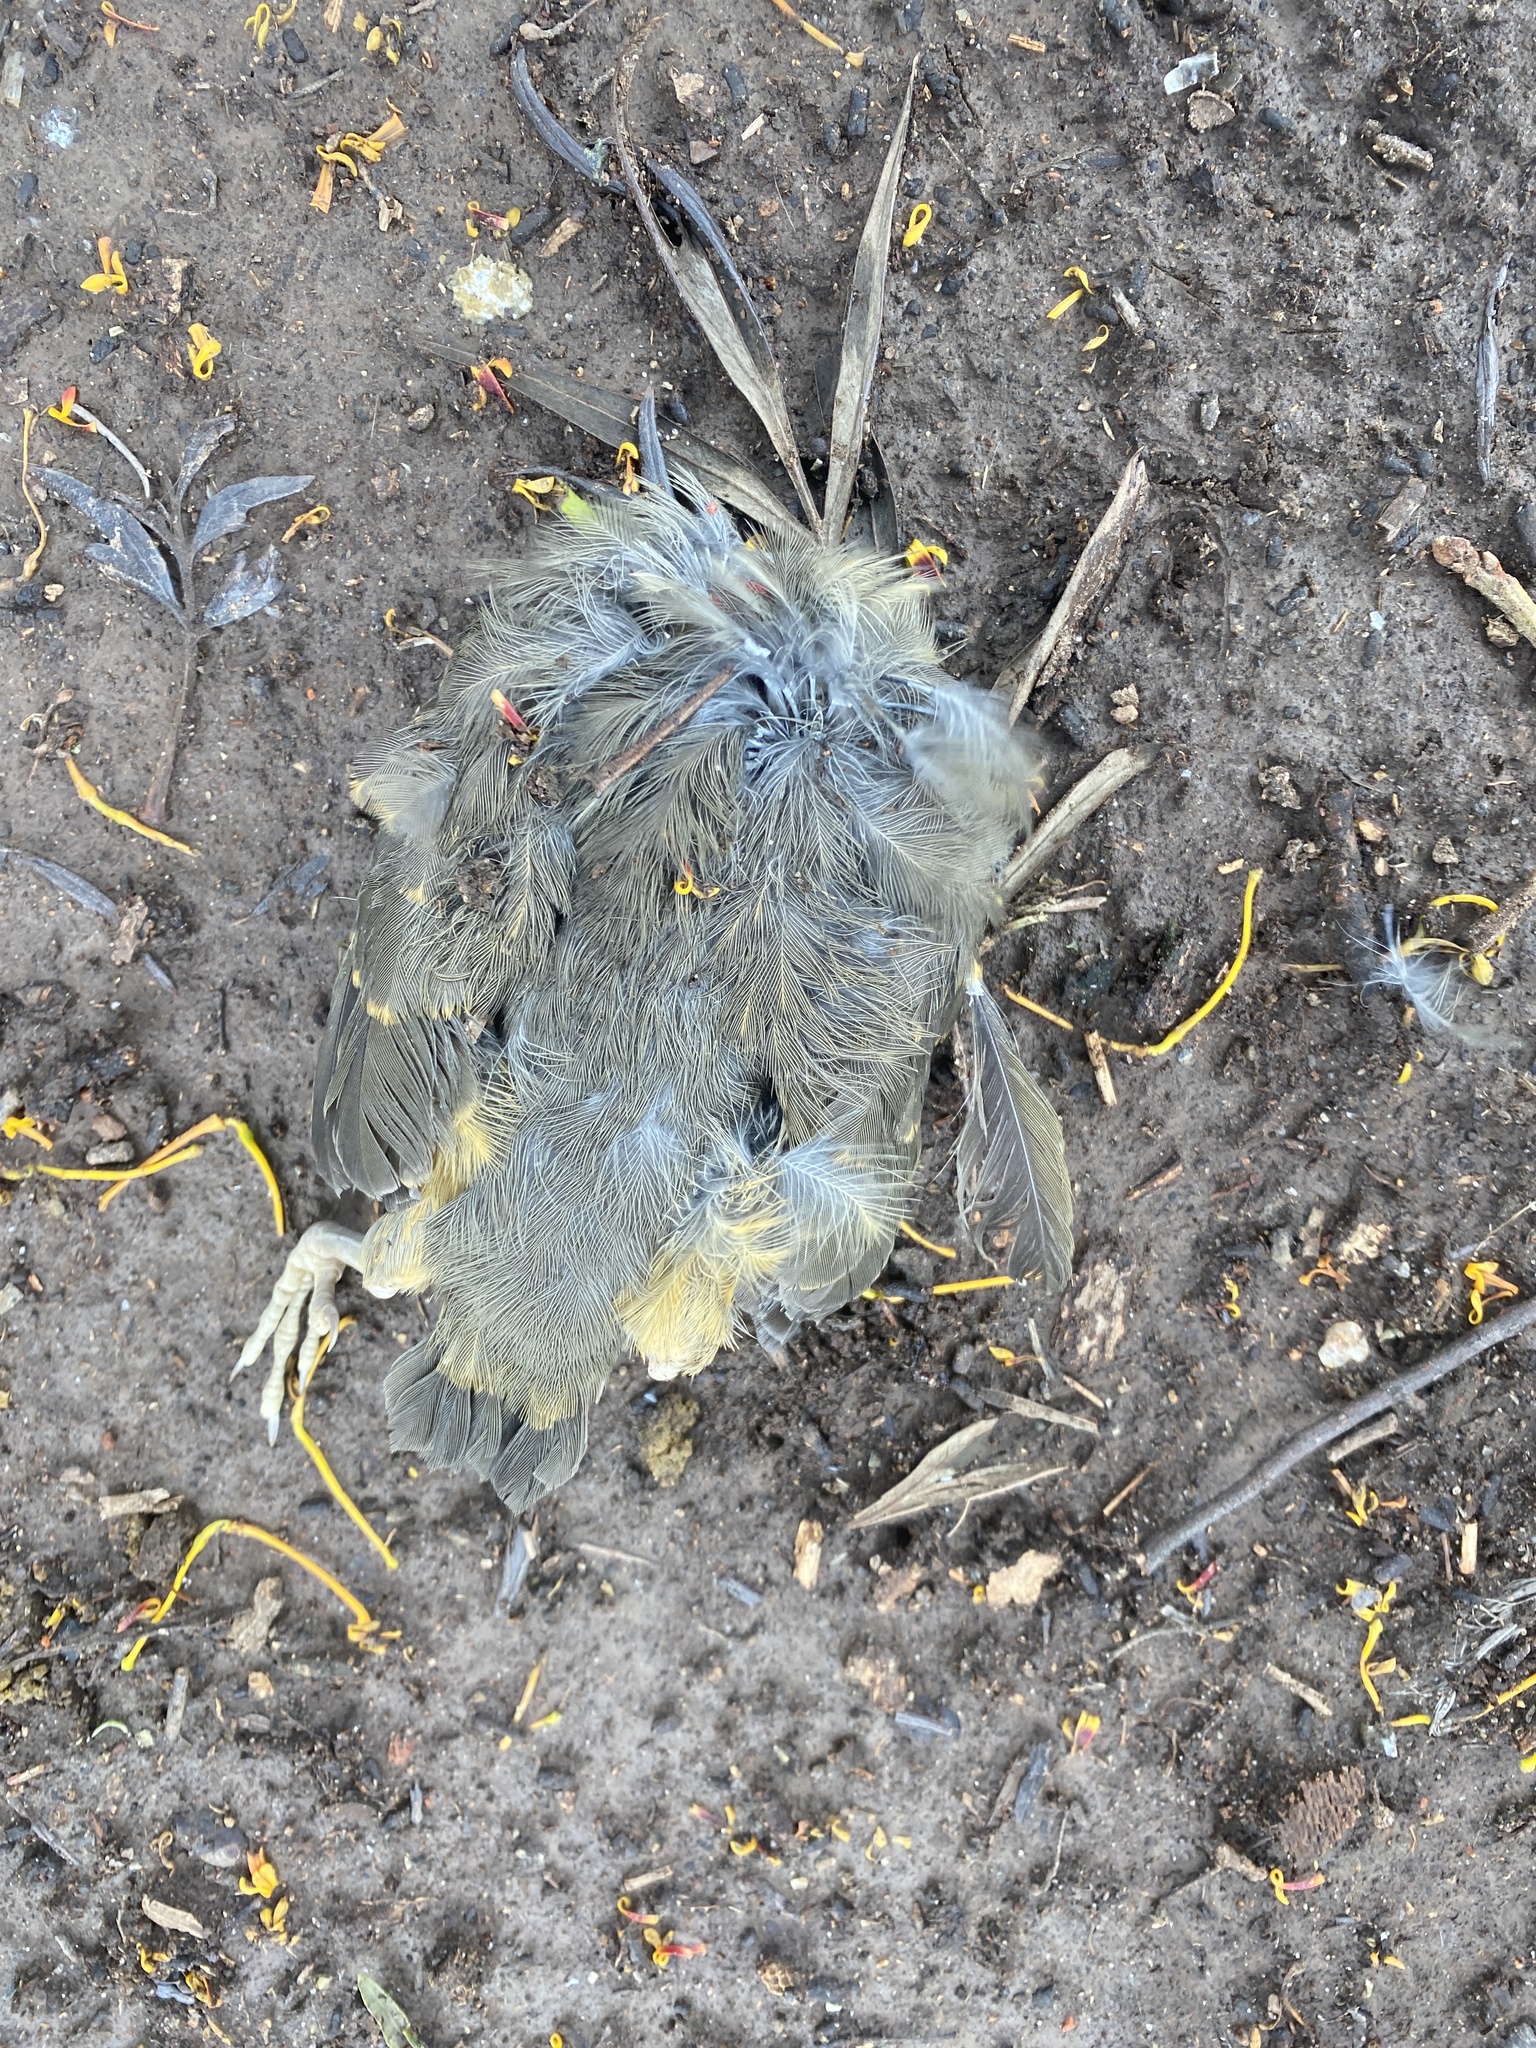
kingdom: Animalia
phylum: Chordata
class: Aves
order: Passeriformes
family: Turdidae
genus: Turdus
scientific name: Turdus rufiventris
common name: Rufous-bellied thrush
